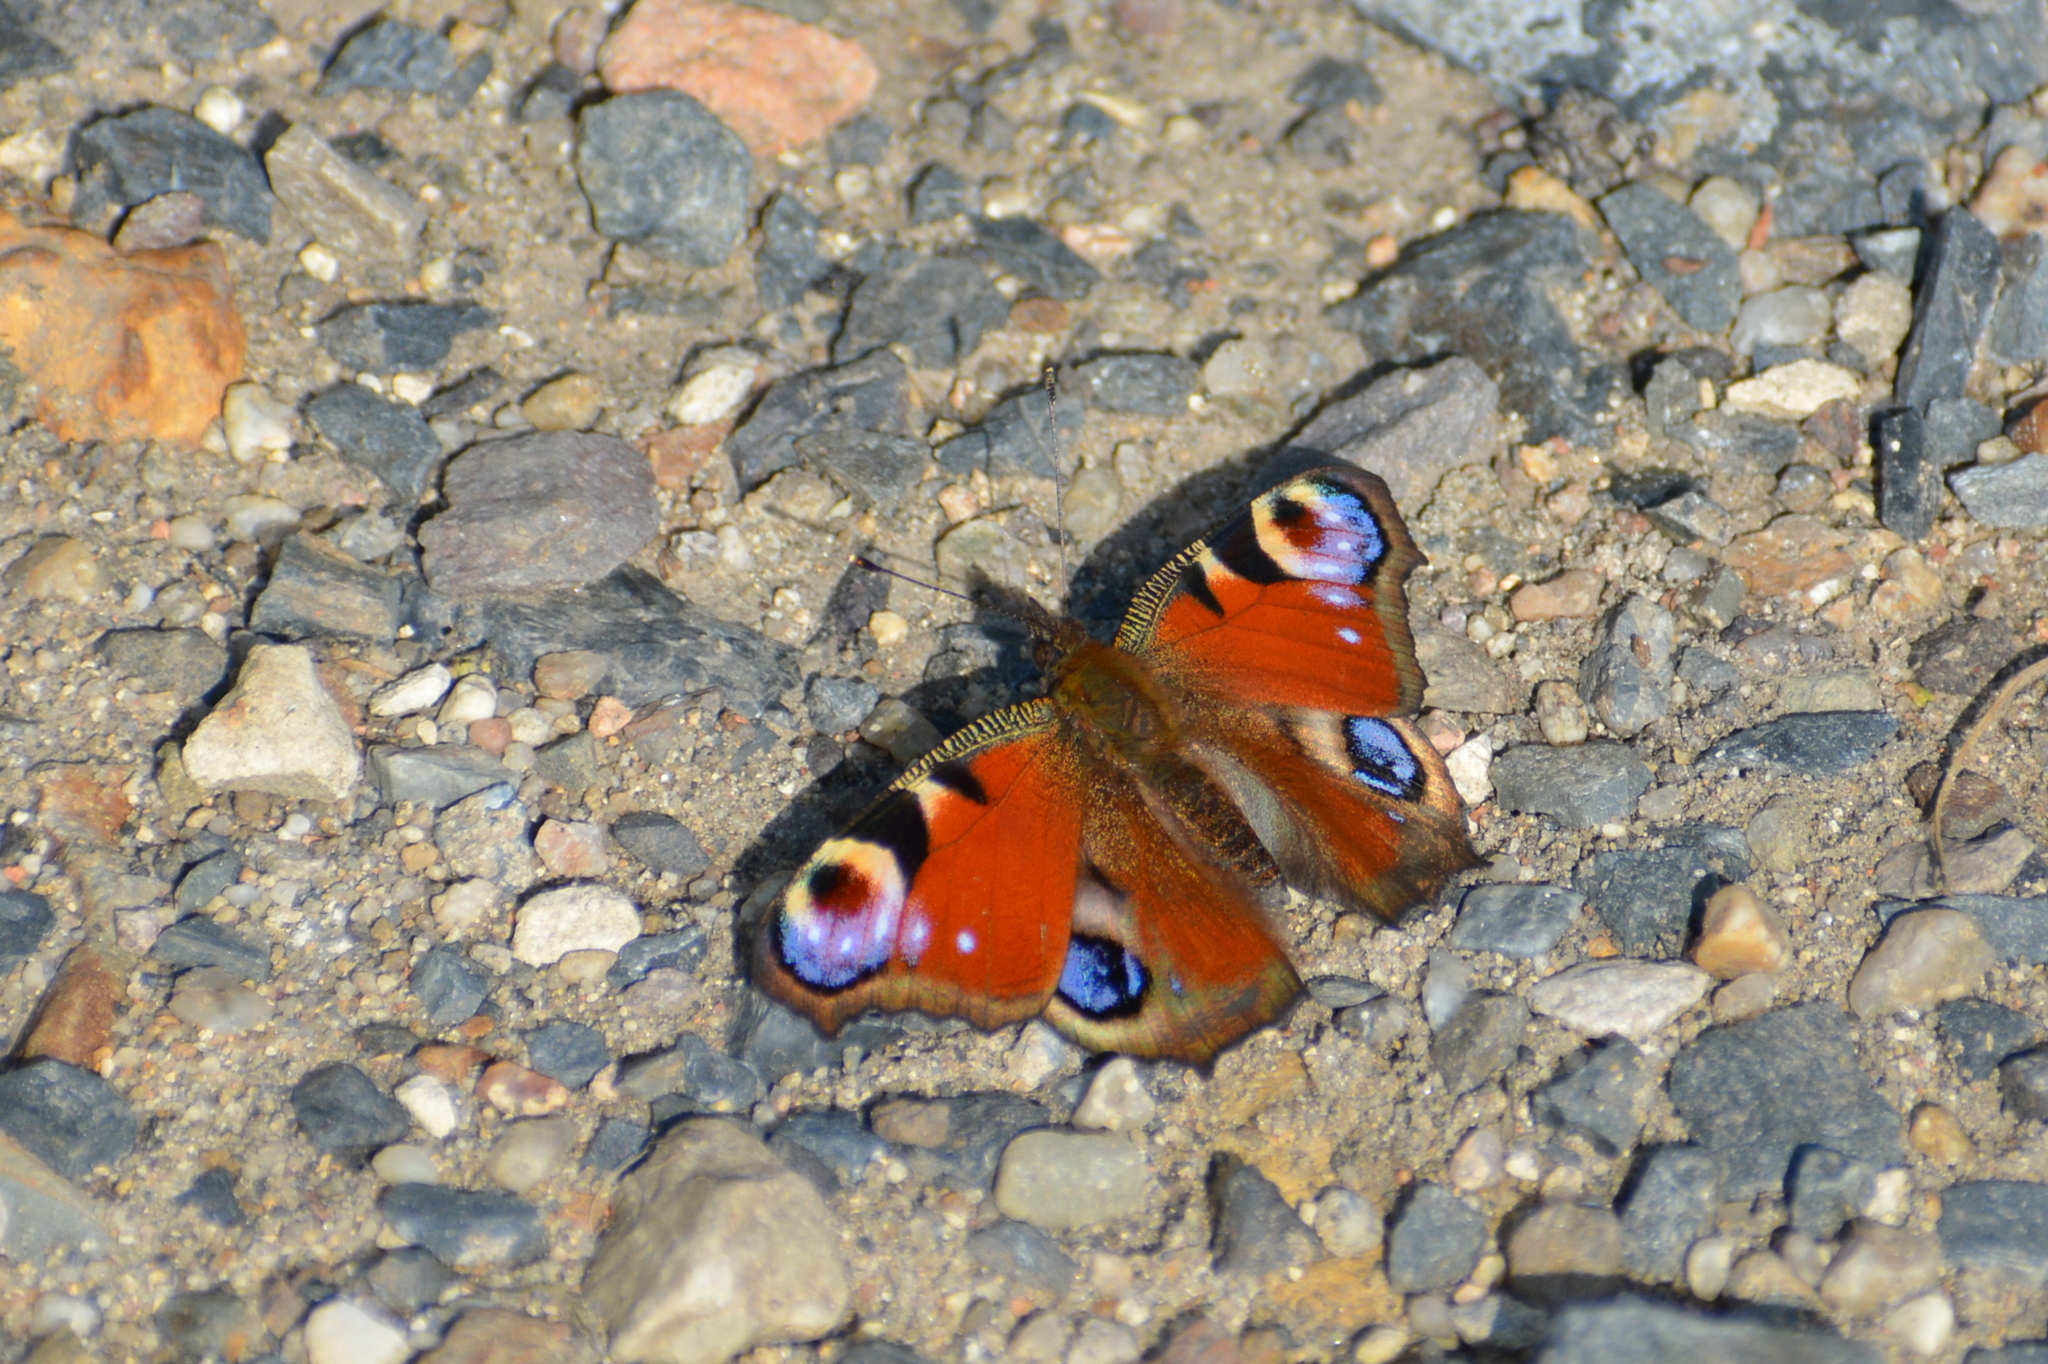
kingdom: Animalia
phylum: Arthropoda
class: Insecta
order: Lepidoptera
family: Nymphalidae
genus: Aglais
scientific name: Aglais io
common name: Peacock
